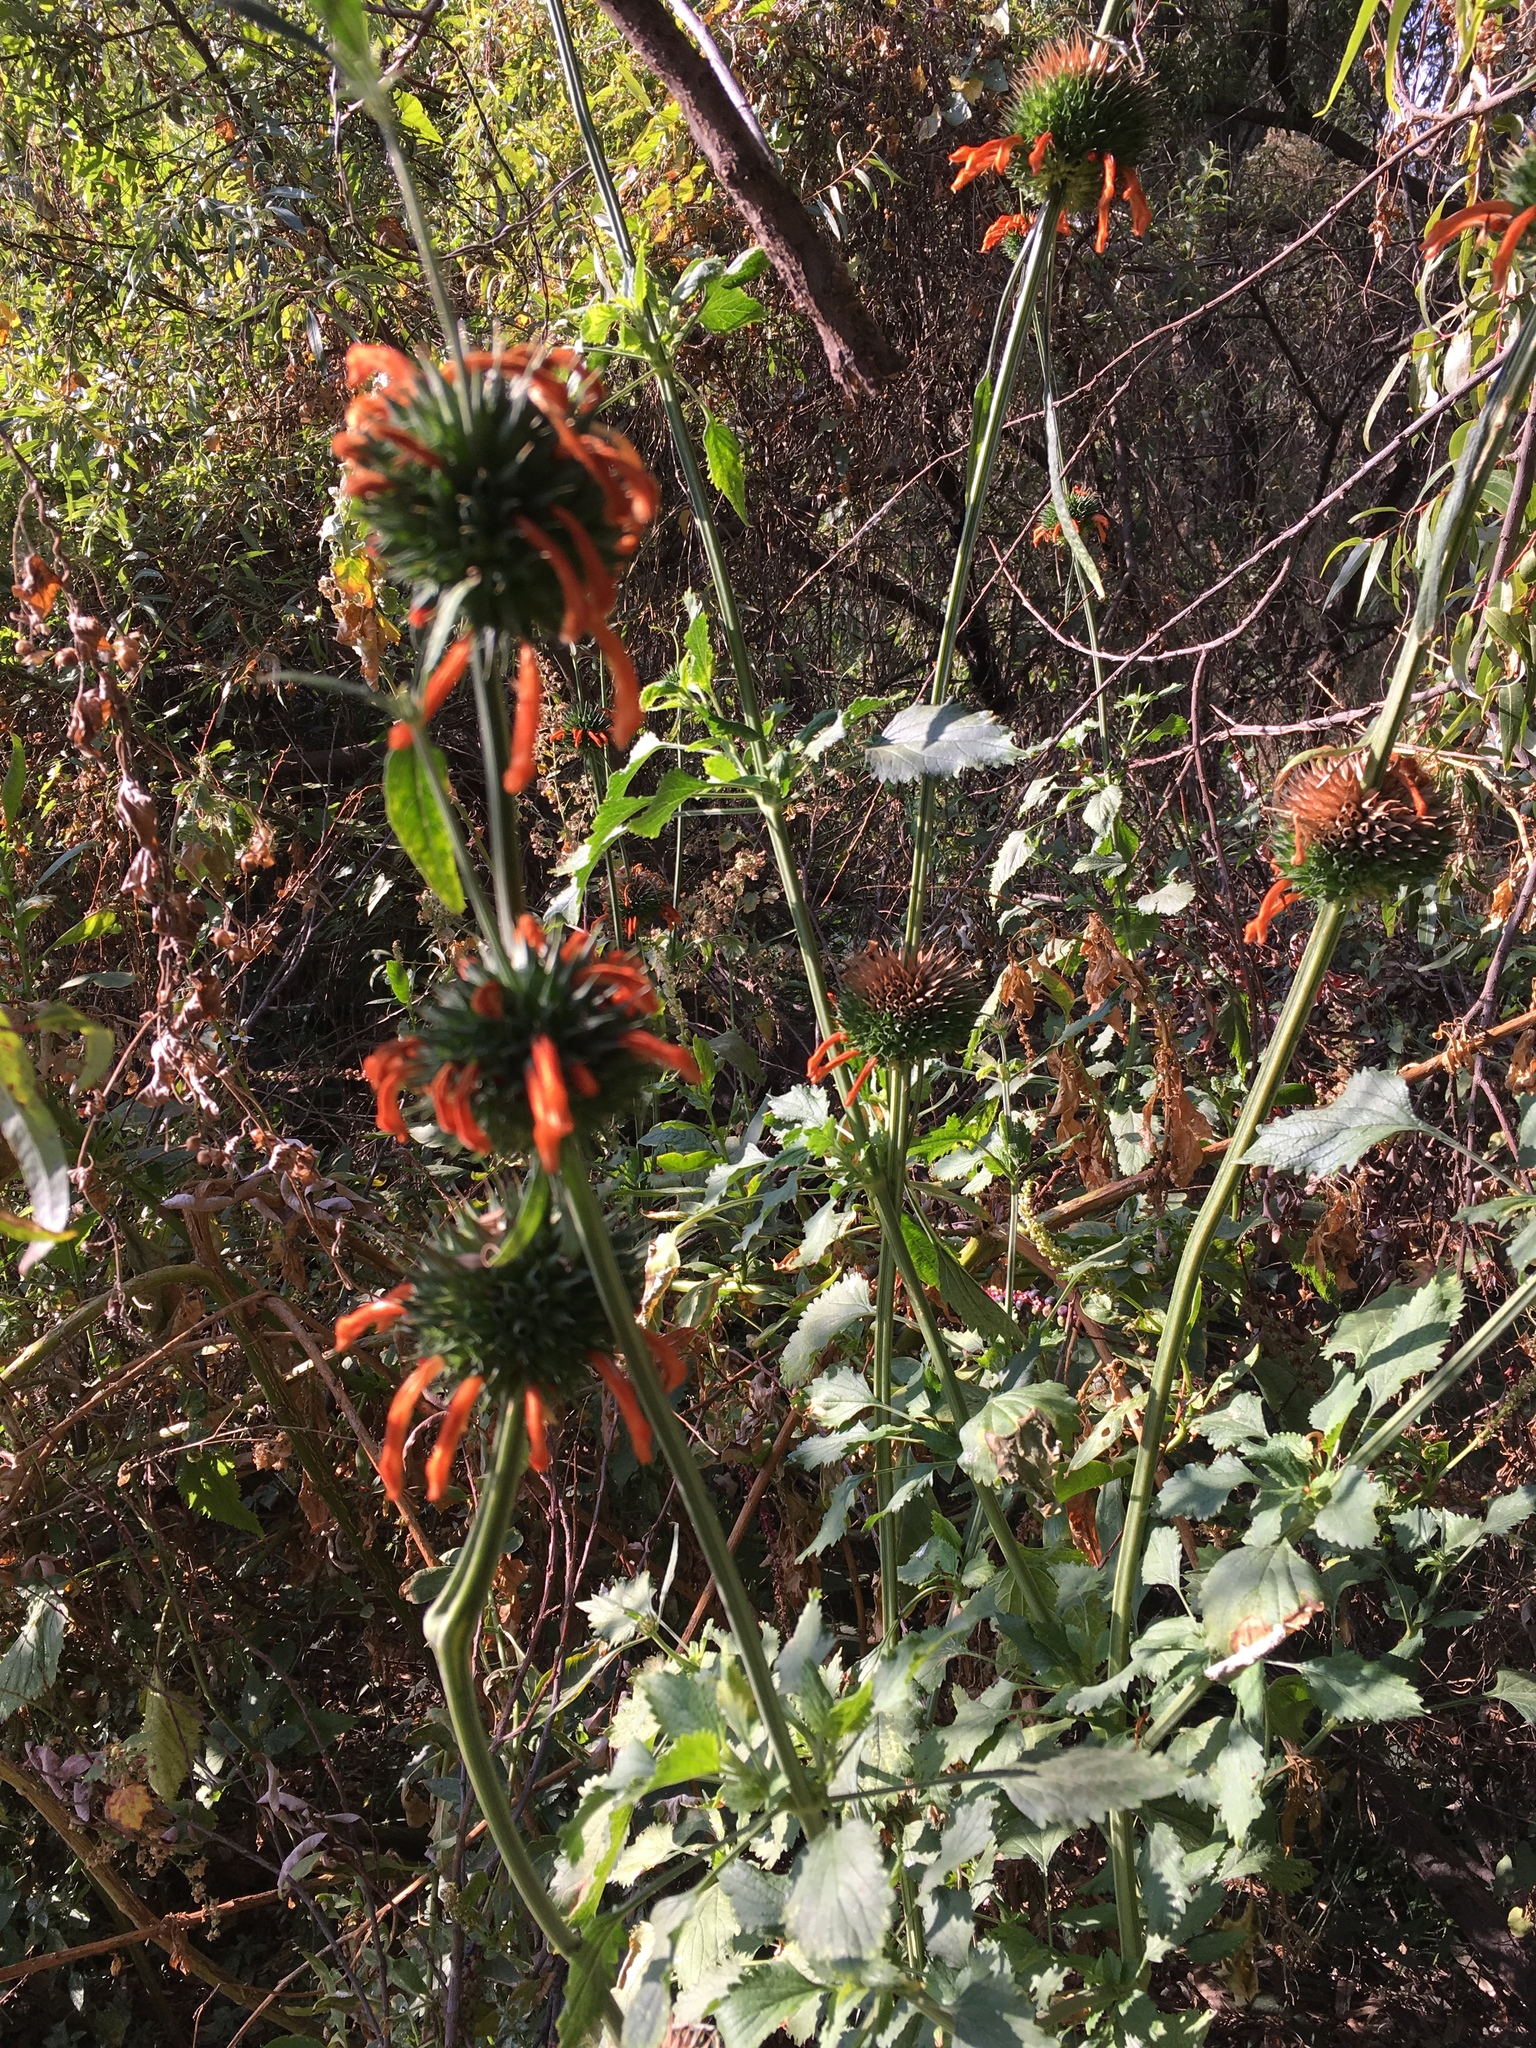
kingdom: Plantae
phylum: Tracheophyta
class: Magnoliopsida
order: Lamiales
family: Lamiaceae
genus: Leonotis
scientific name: Leonotis nepetifolia
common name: Christmas candlestick
